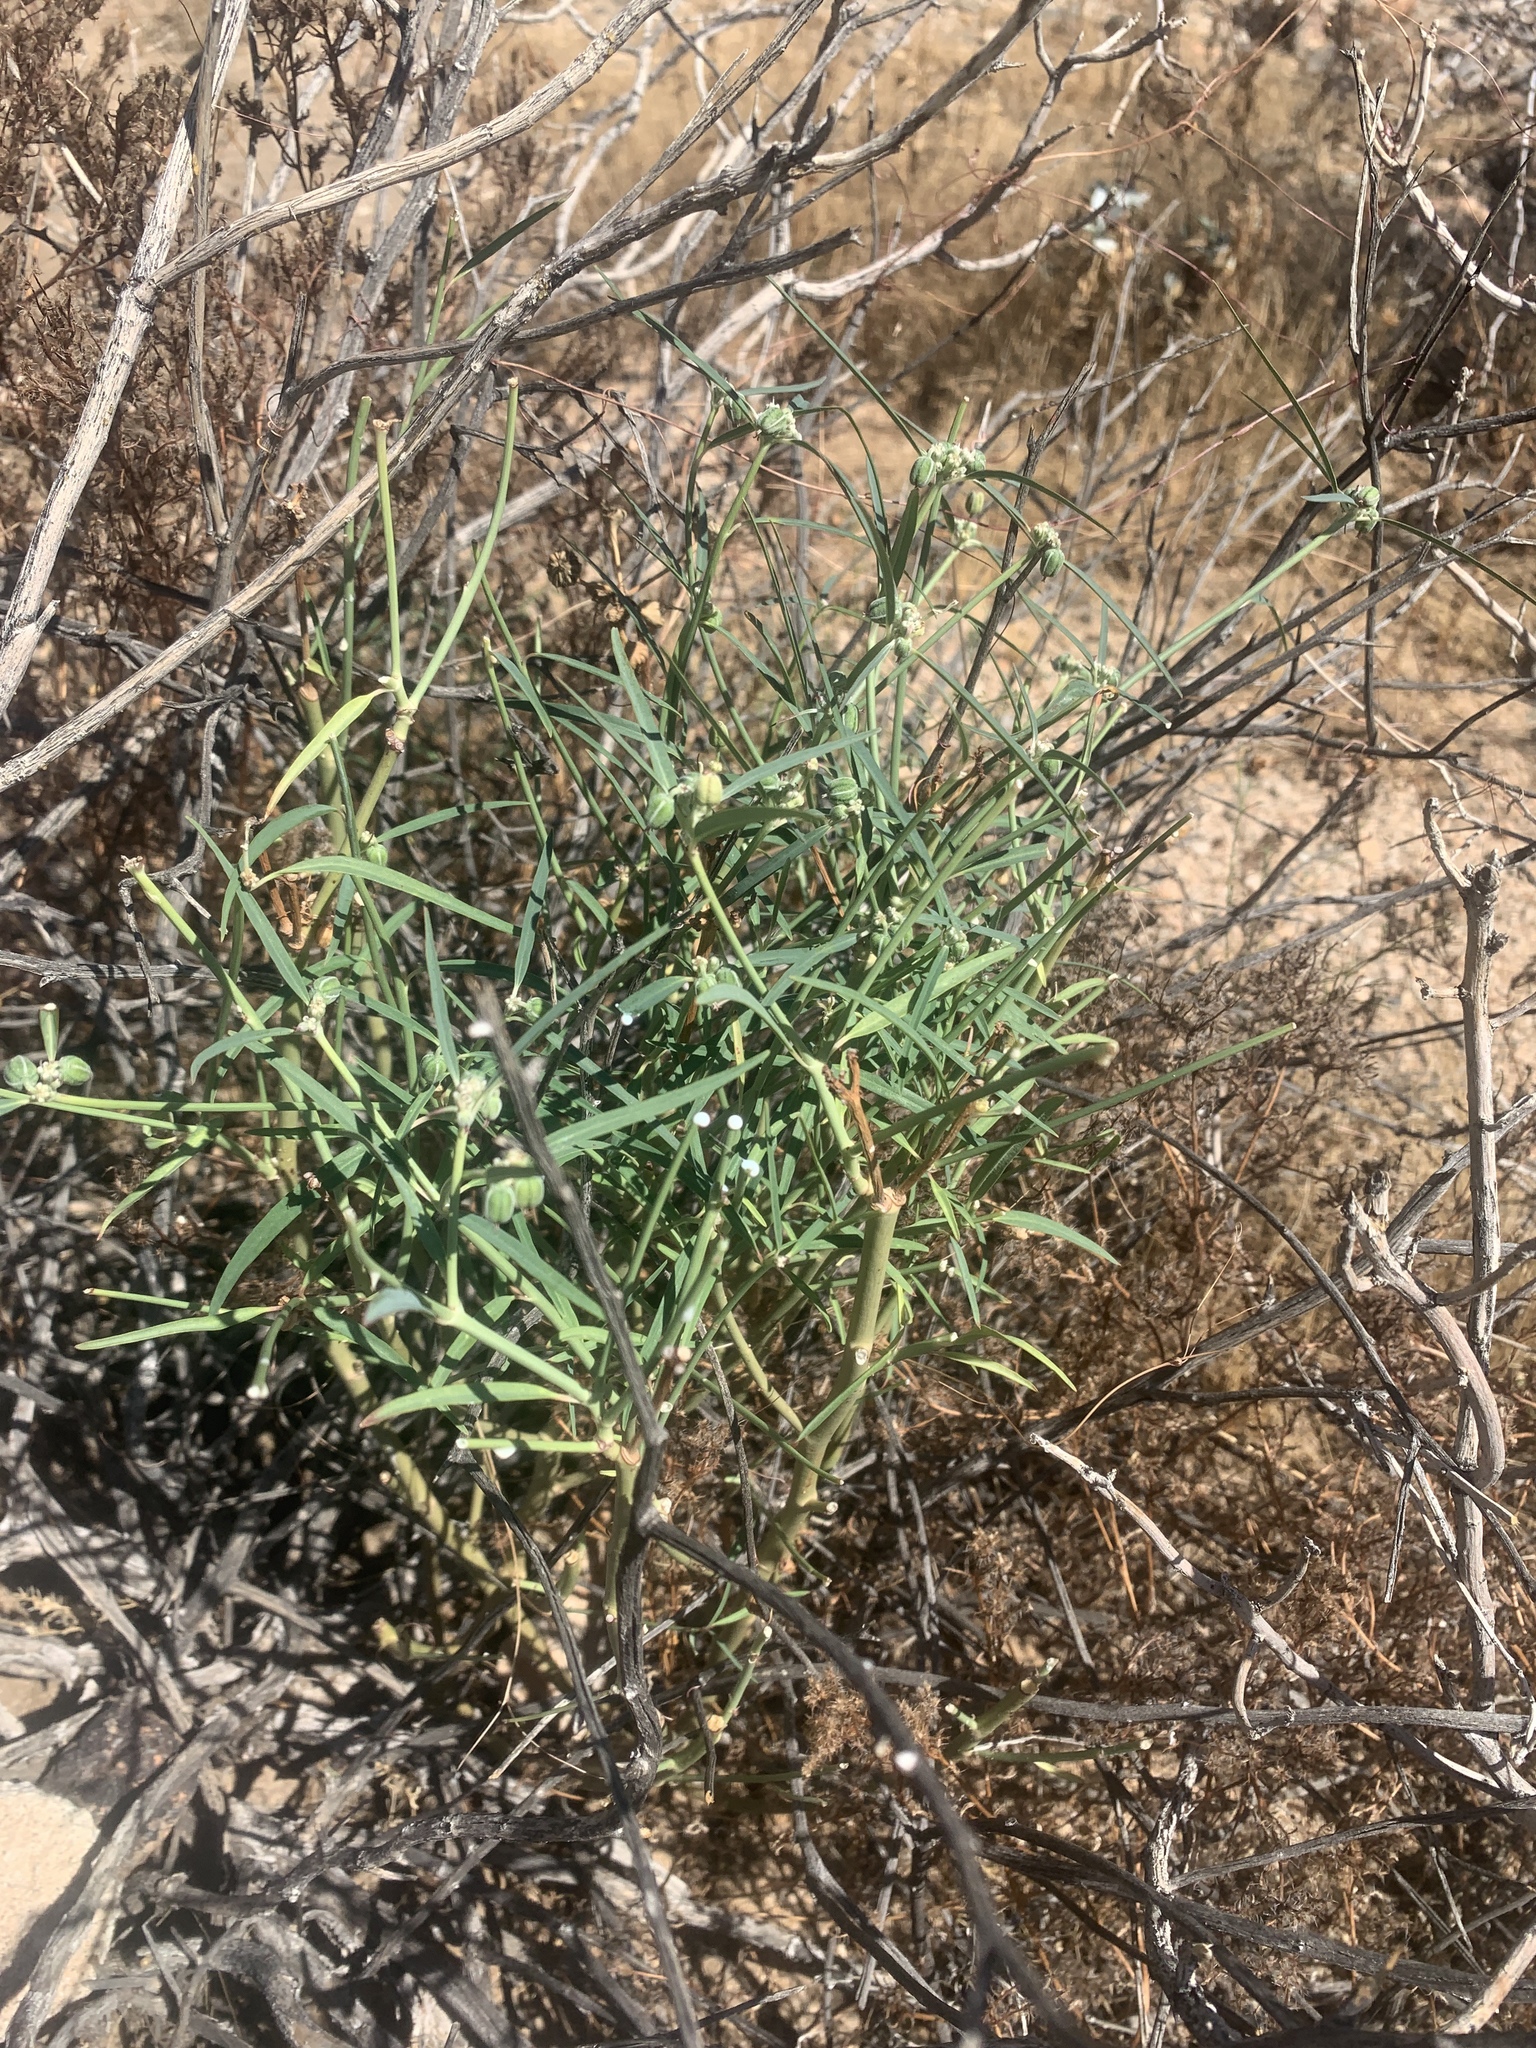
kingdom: Plantae
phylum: Tracheophyta
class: Magnoliopsida
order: Malpighiales
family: Euphorbiaceae
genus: Euphorbia
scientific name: Euphorbia eriantha
